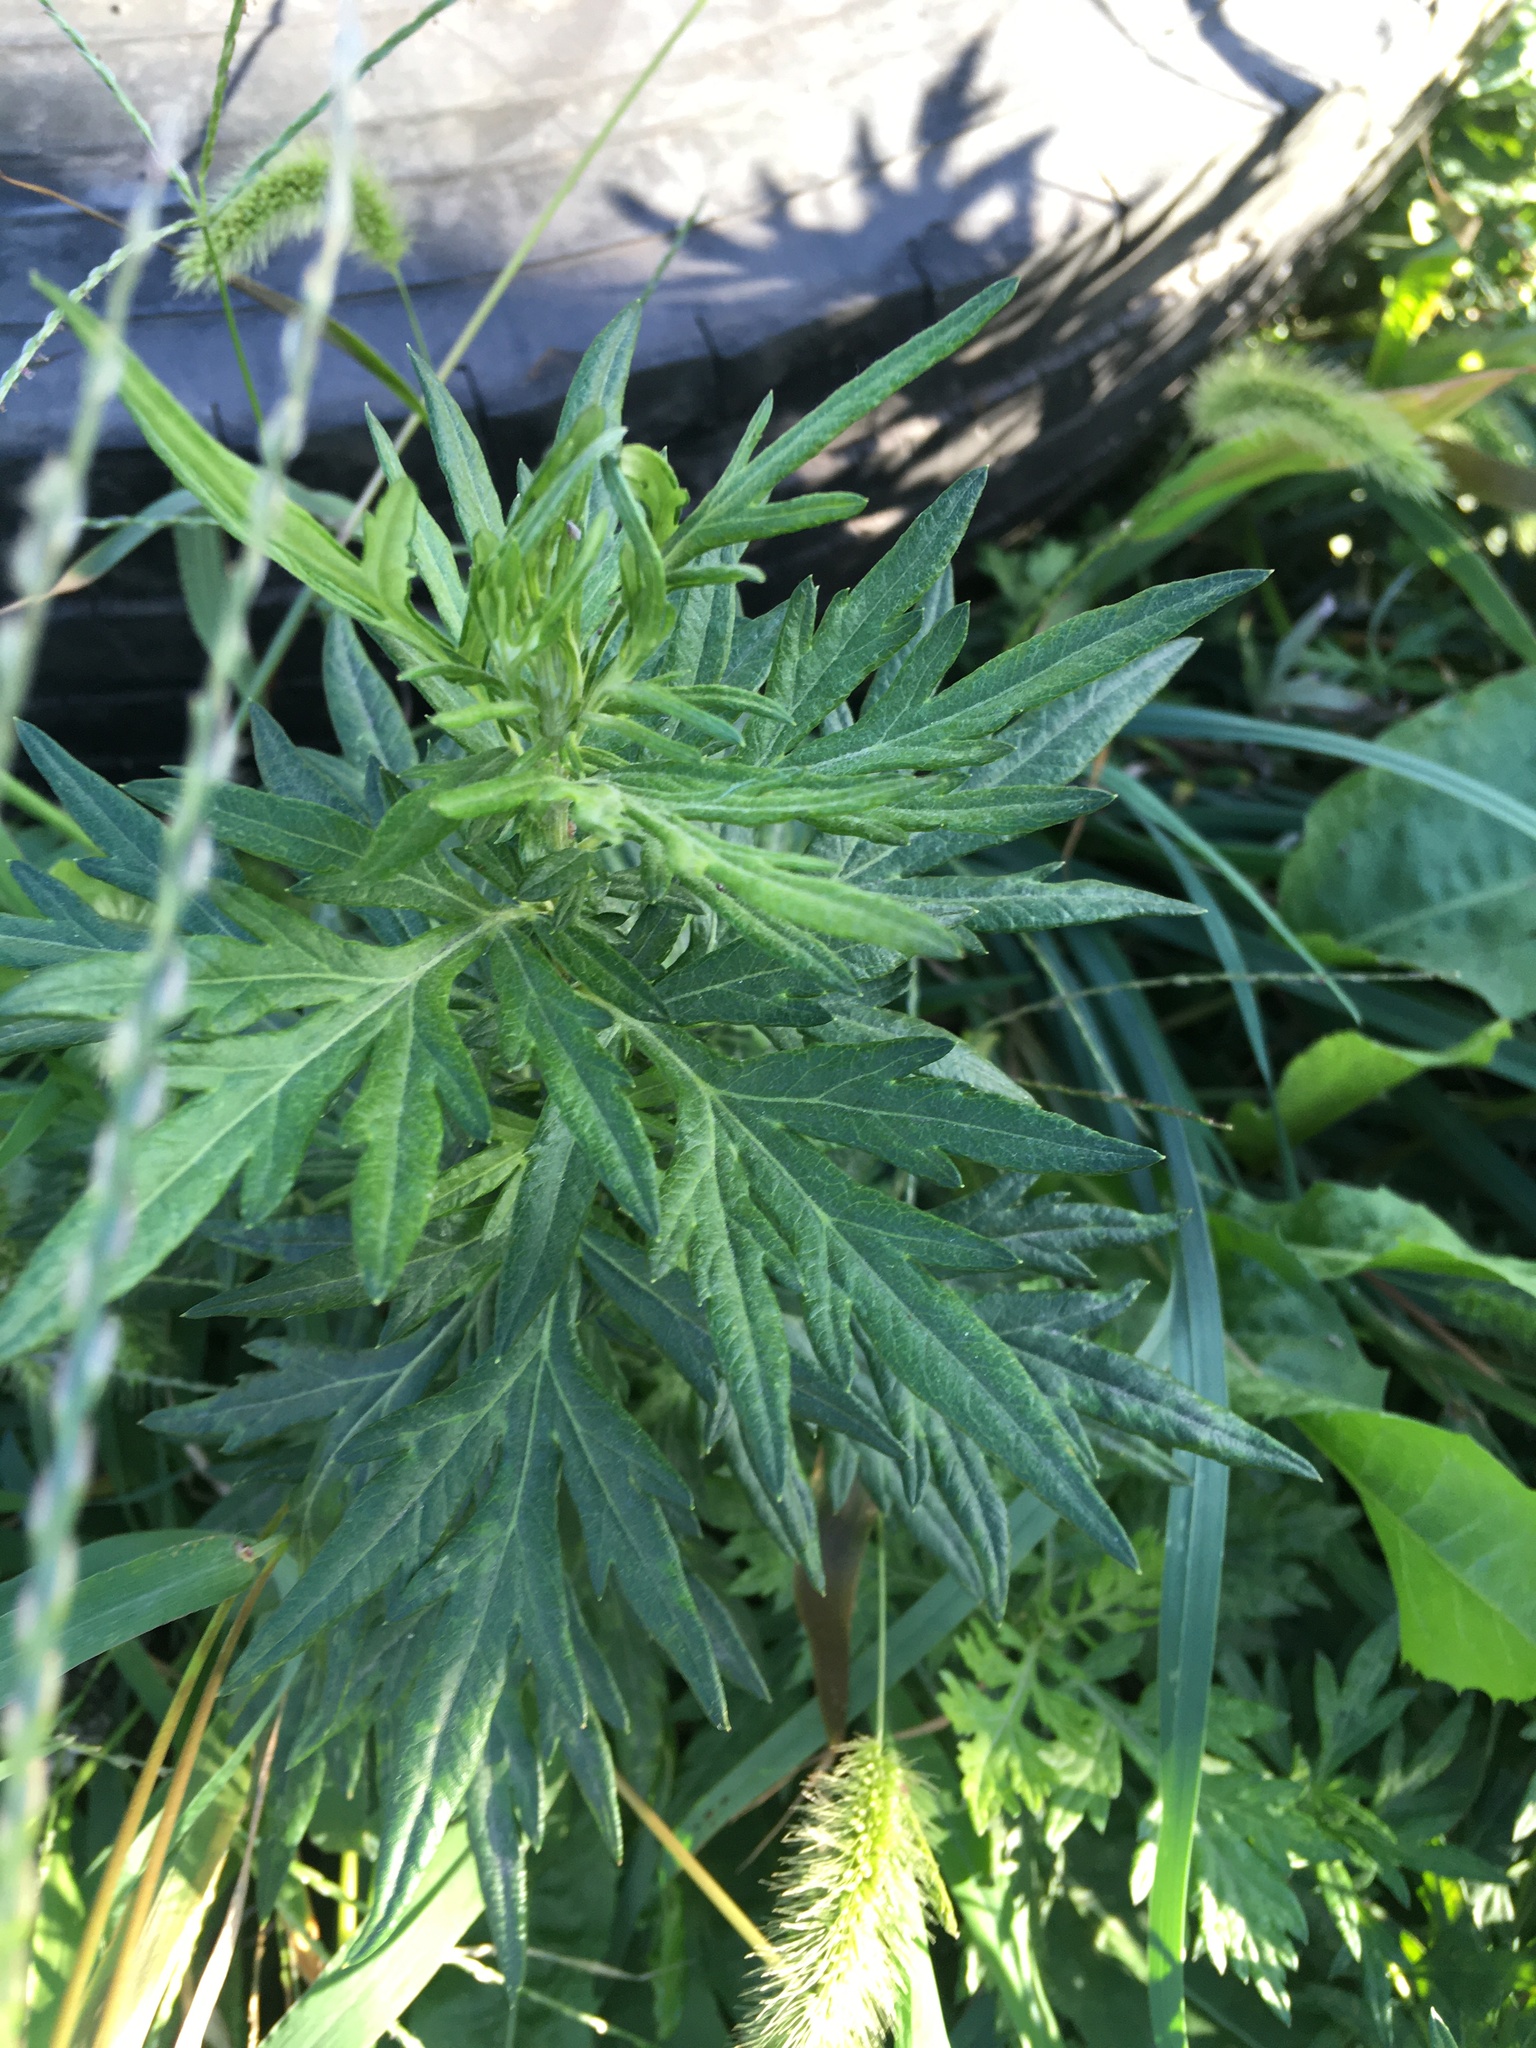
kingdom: Plantae
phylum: Tracheophyta
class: Magnoliopsida
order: Asterales
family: Asteraceae
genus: Artemisia
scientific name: Artemisia vulgaris
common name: Mugwort
